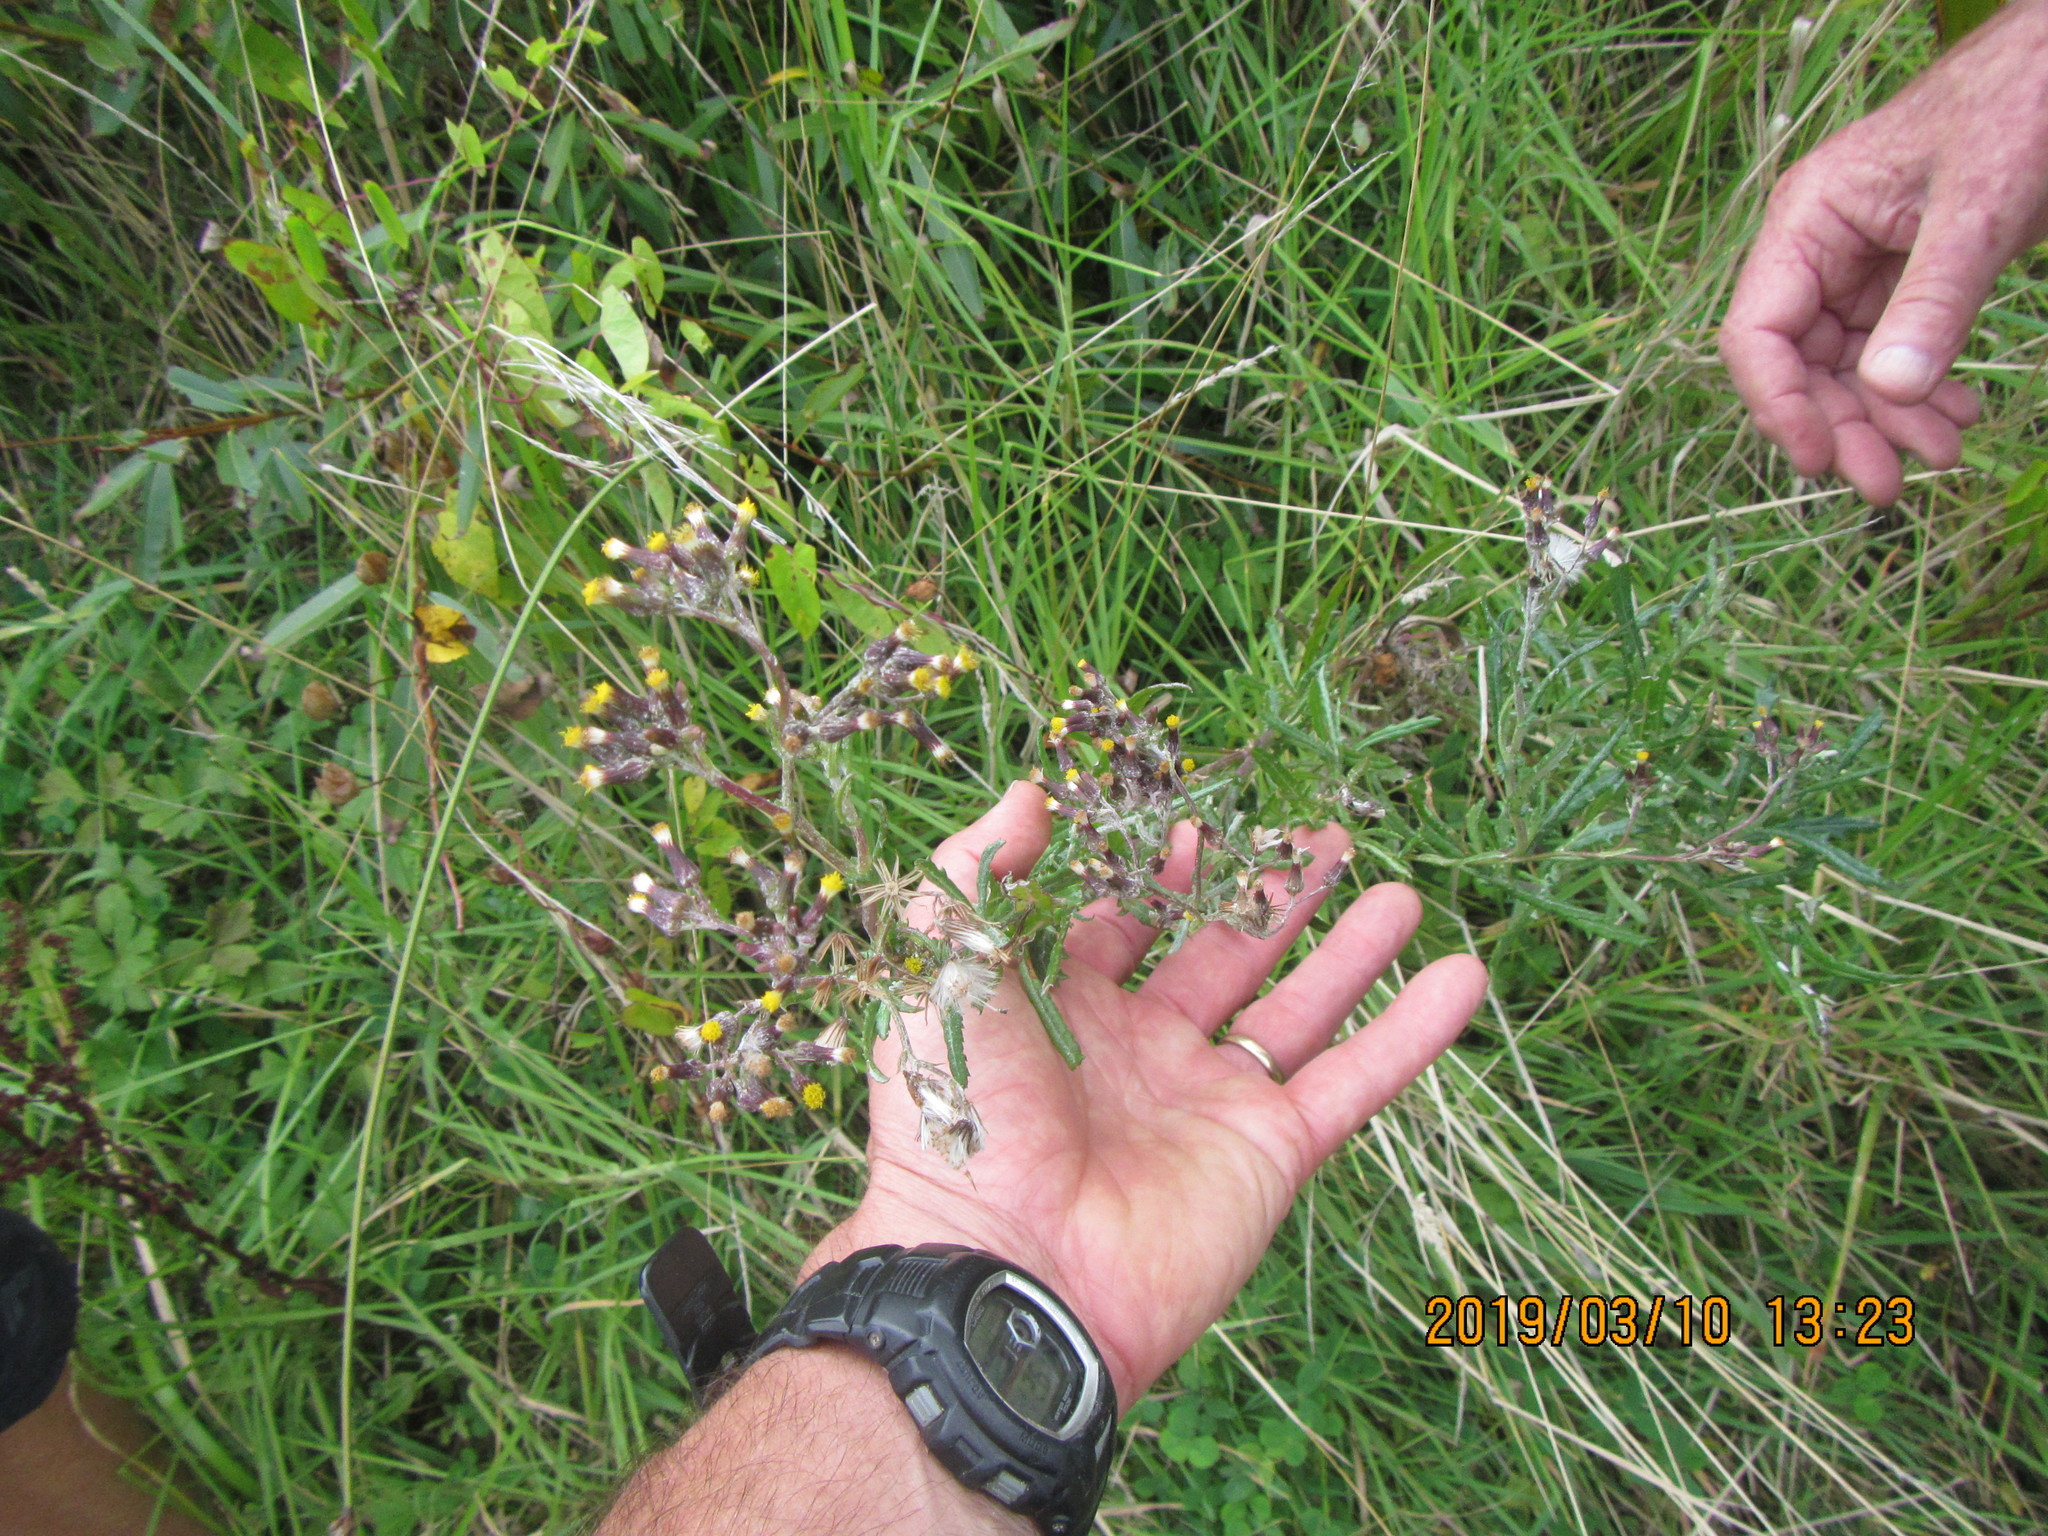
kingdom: Plantae
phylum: Tracheophyta
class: Magnoliopsida
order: Asterales
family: Asteraceae
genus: Senecio
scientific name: Senecio glomeratus
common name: Cutleaf burnweed
